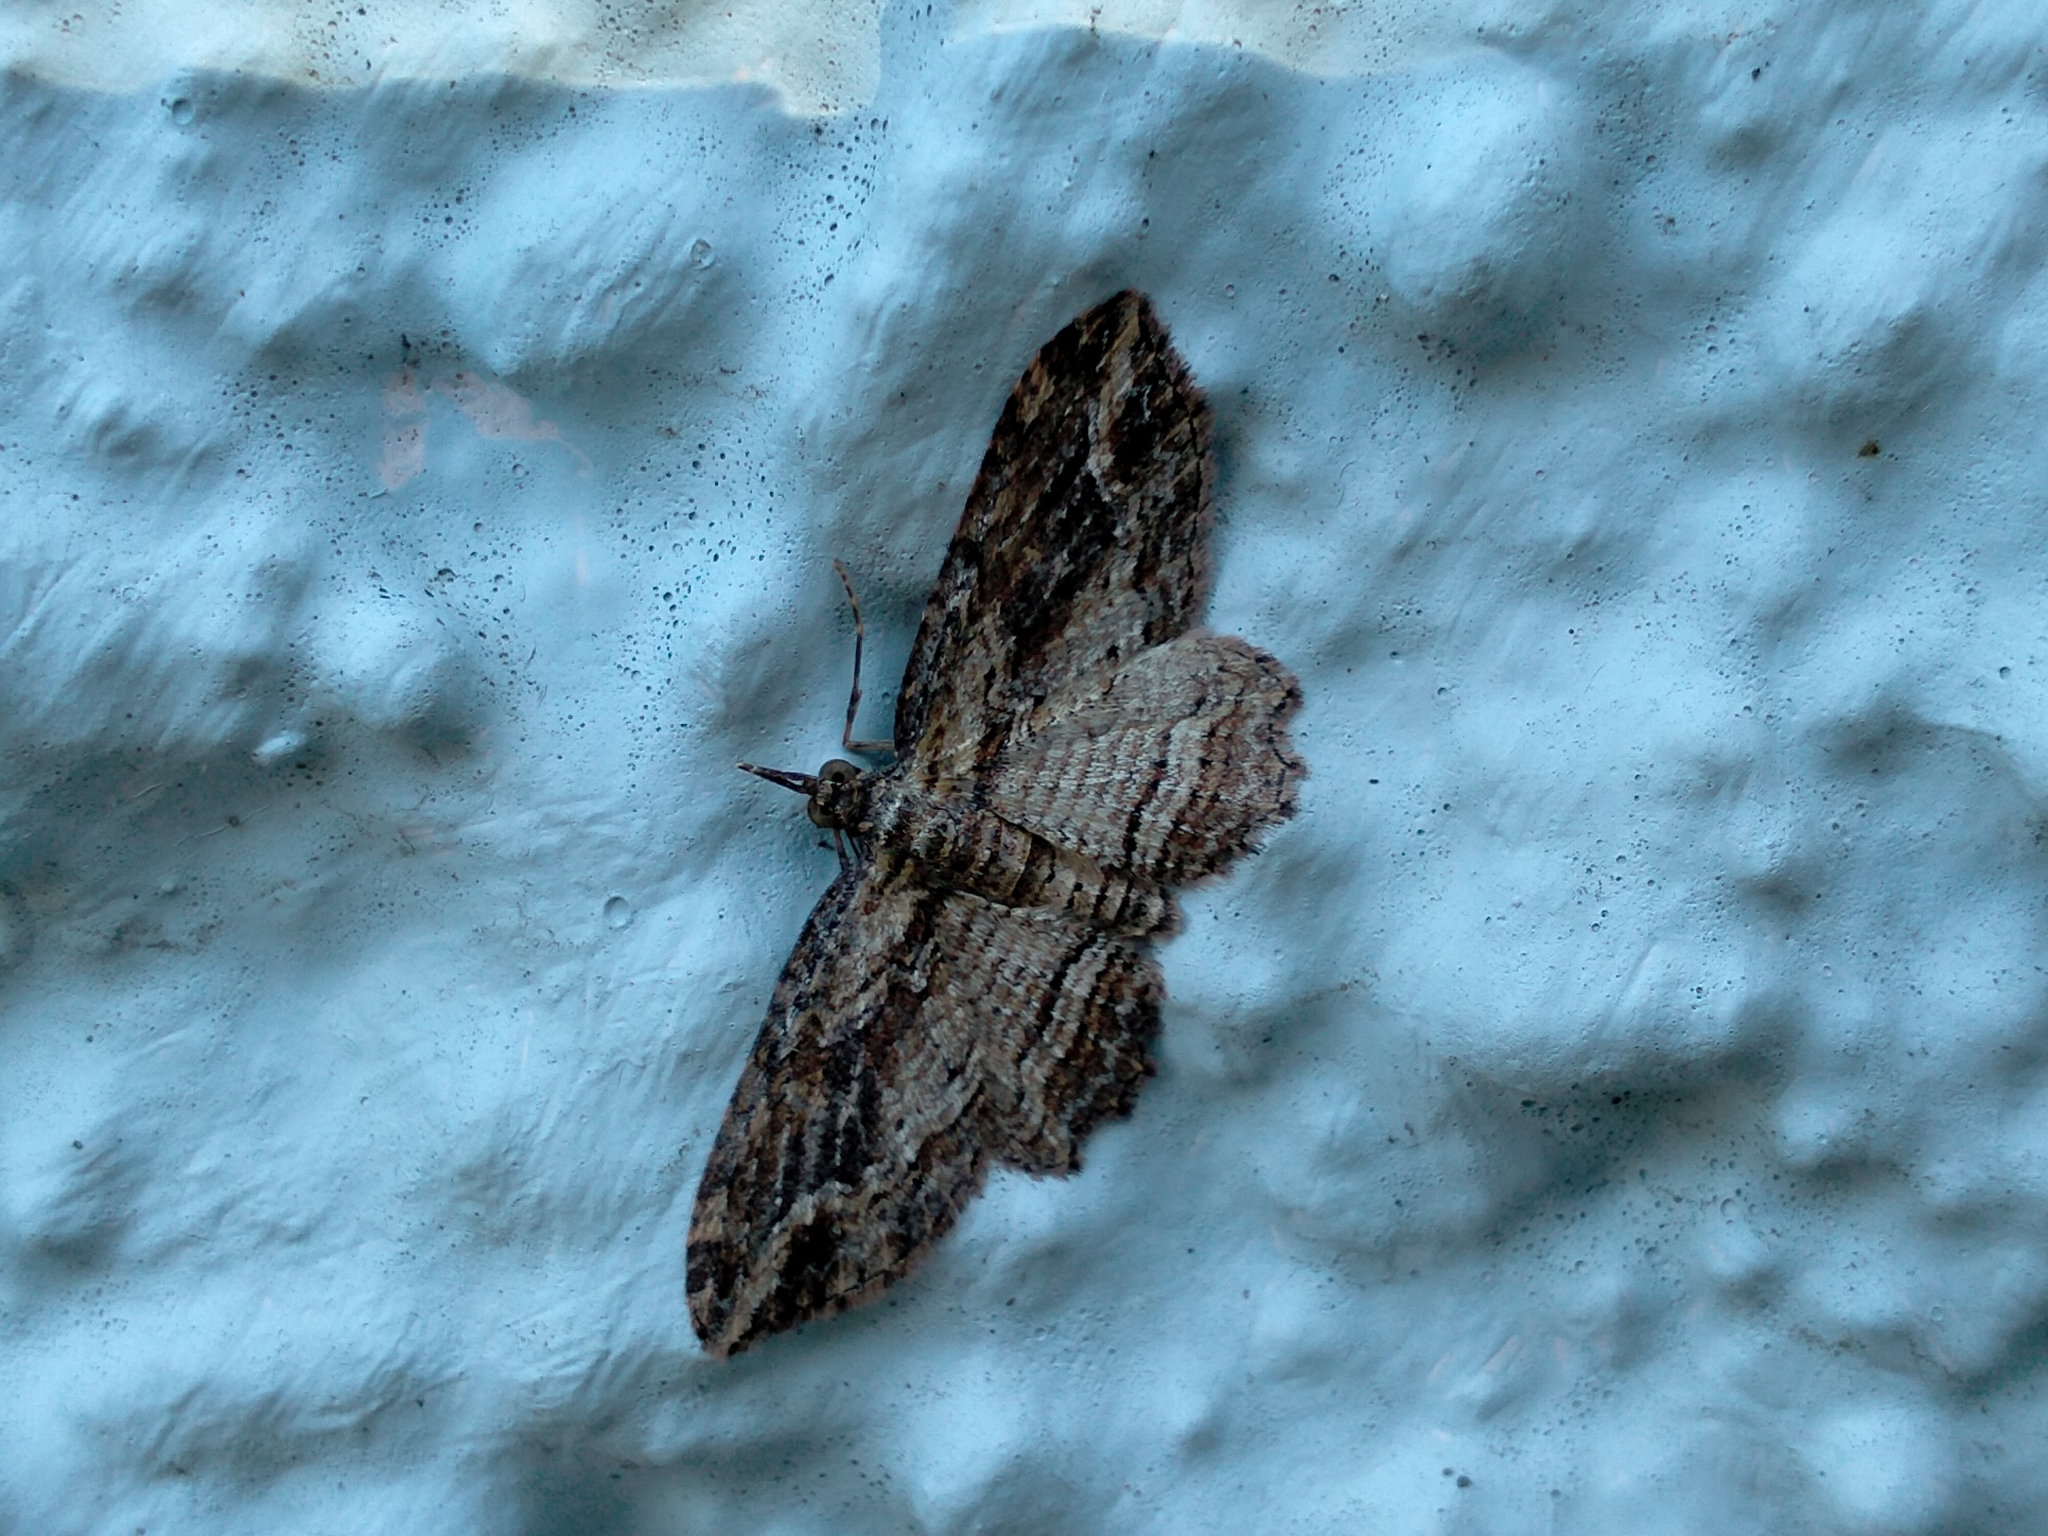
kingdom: Animalia
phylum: Arthropoda
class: Insecta
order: Lepidoptera
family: Geometridae
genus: Chloroclystis
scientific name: Chloroclystis filata
